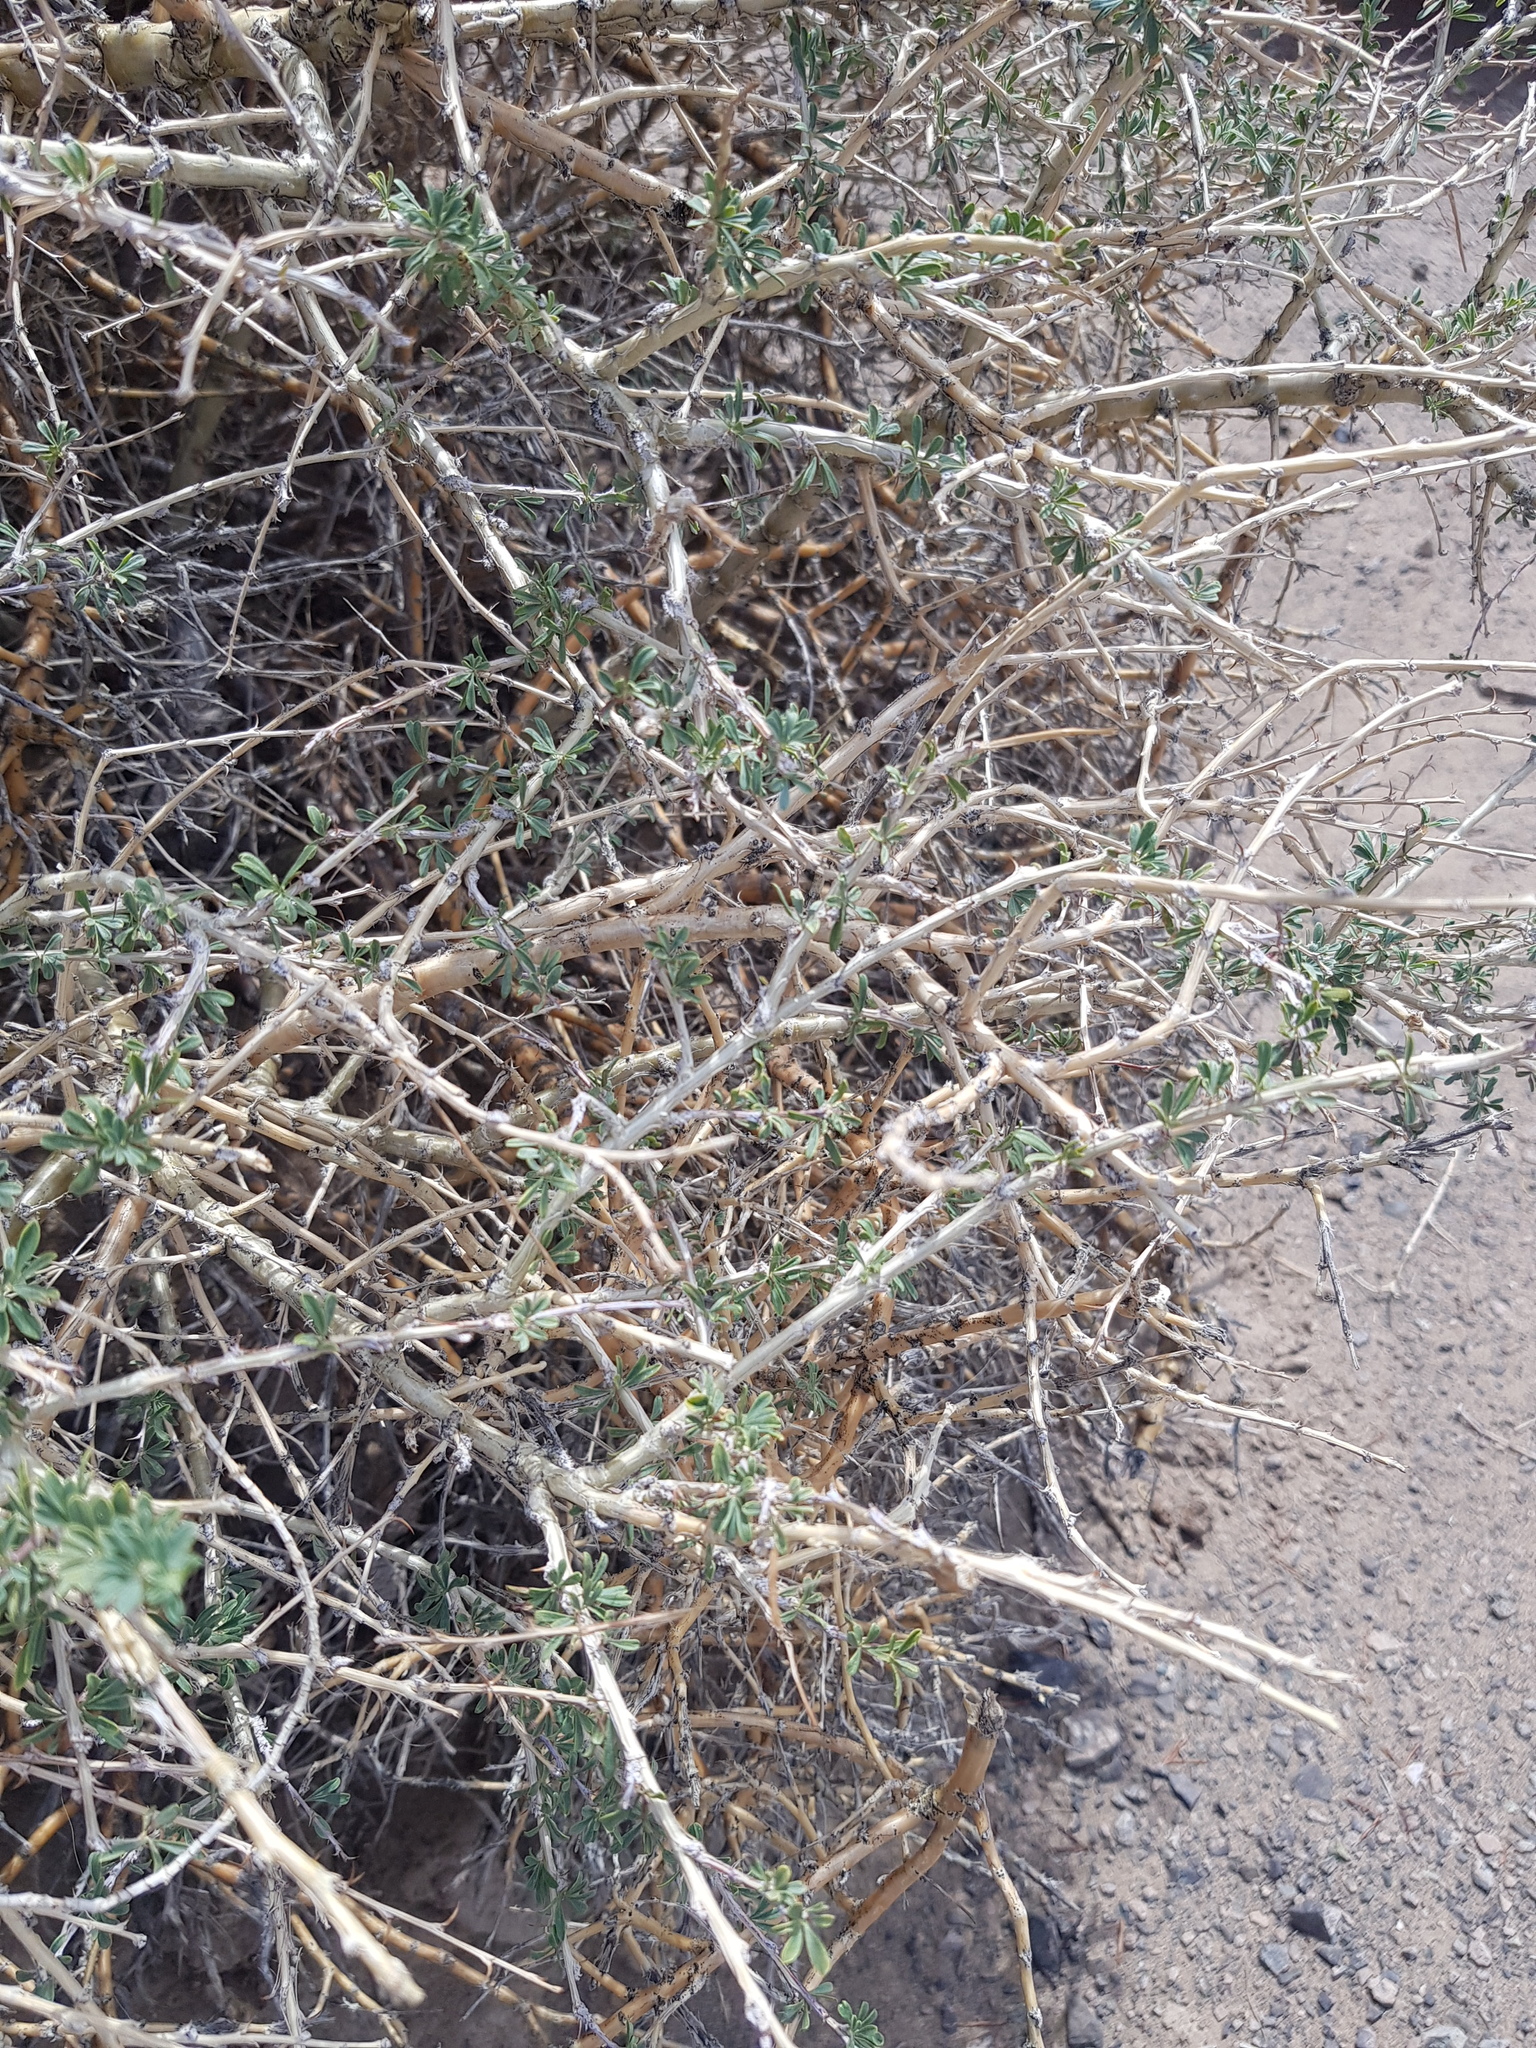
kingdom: Plantae
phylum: Tracheophyta
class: Magnoliopsida
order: Fabales
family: Fabaceae
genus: Caragana
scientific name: Caragana leucophloea
